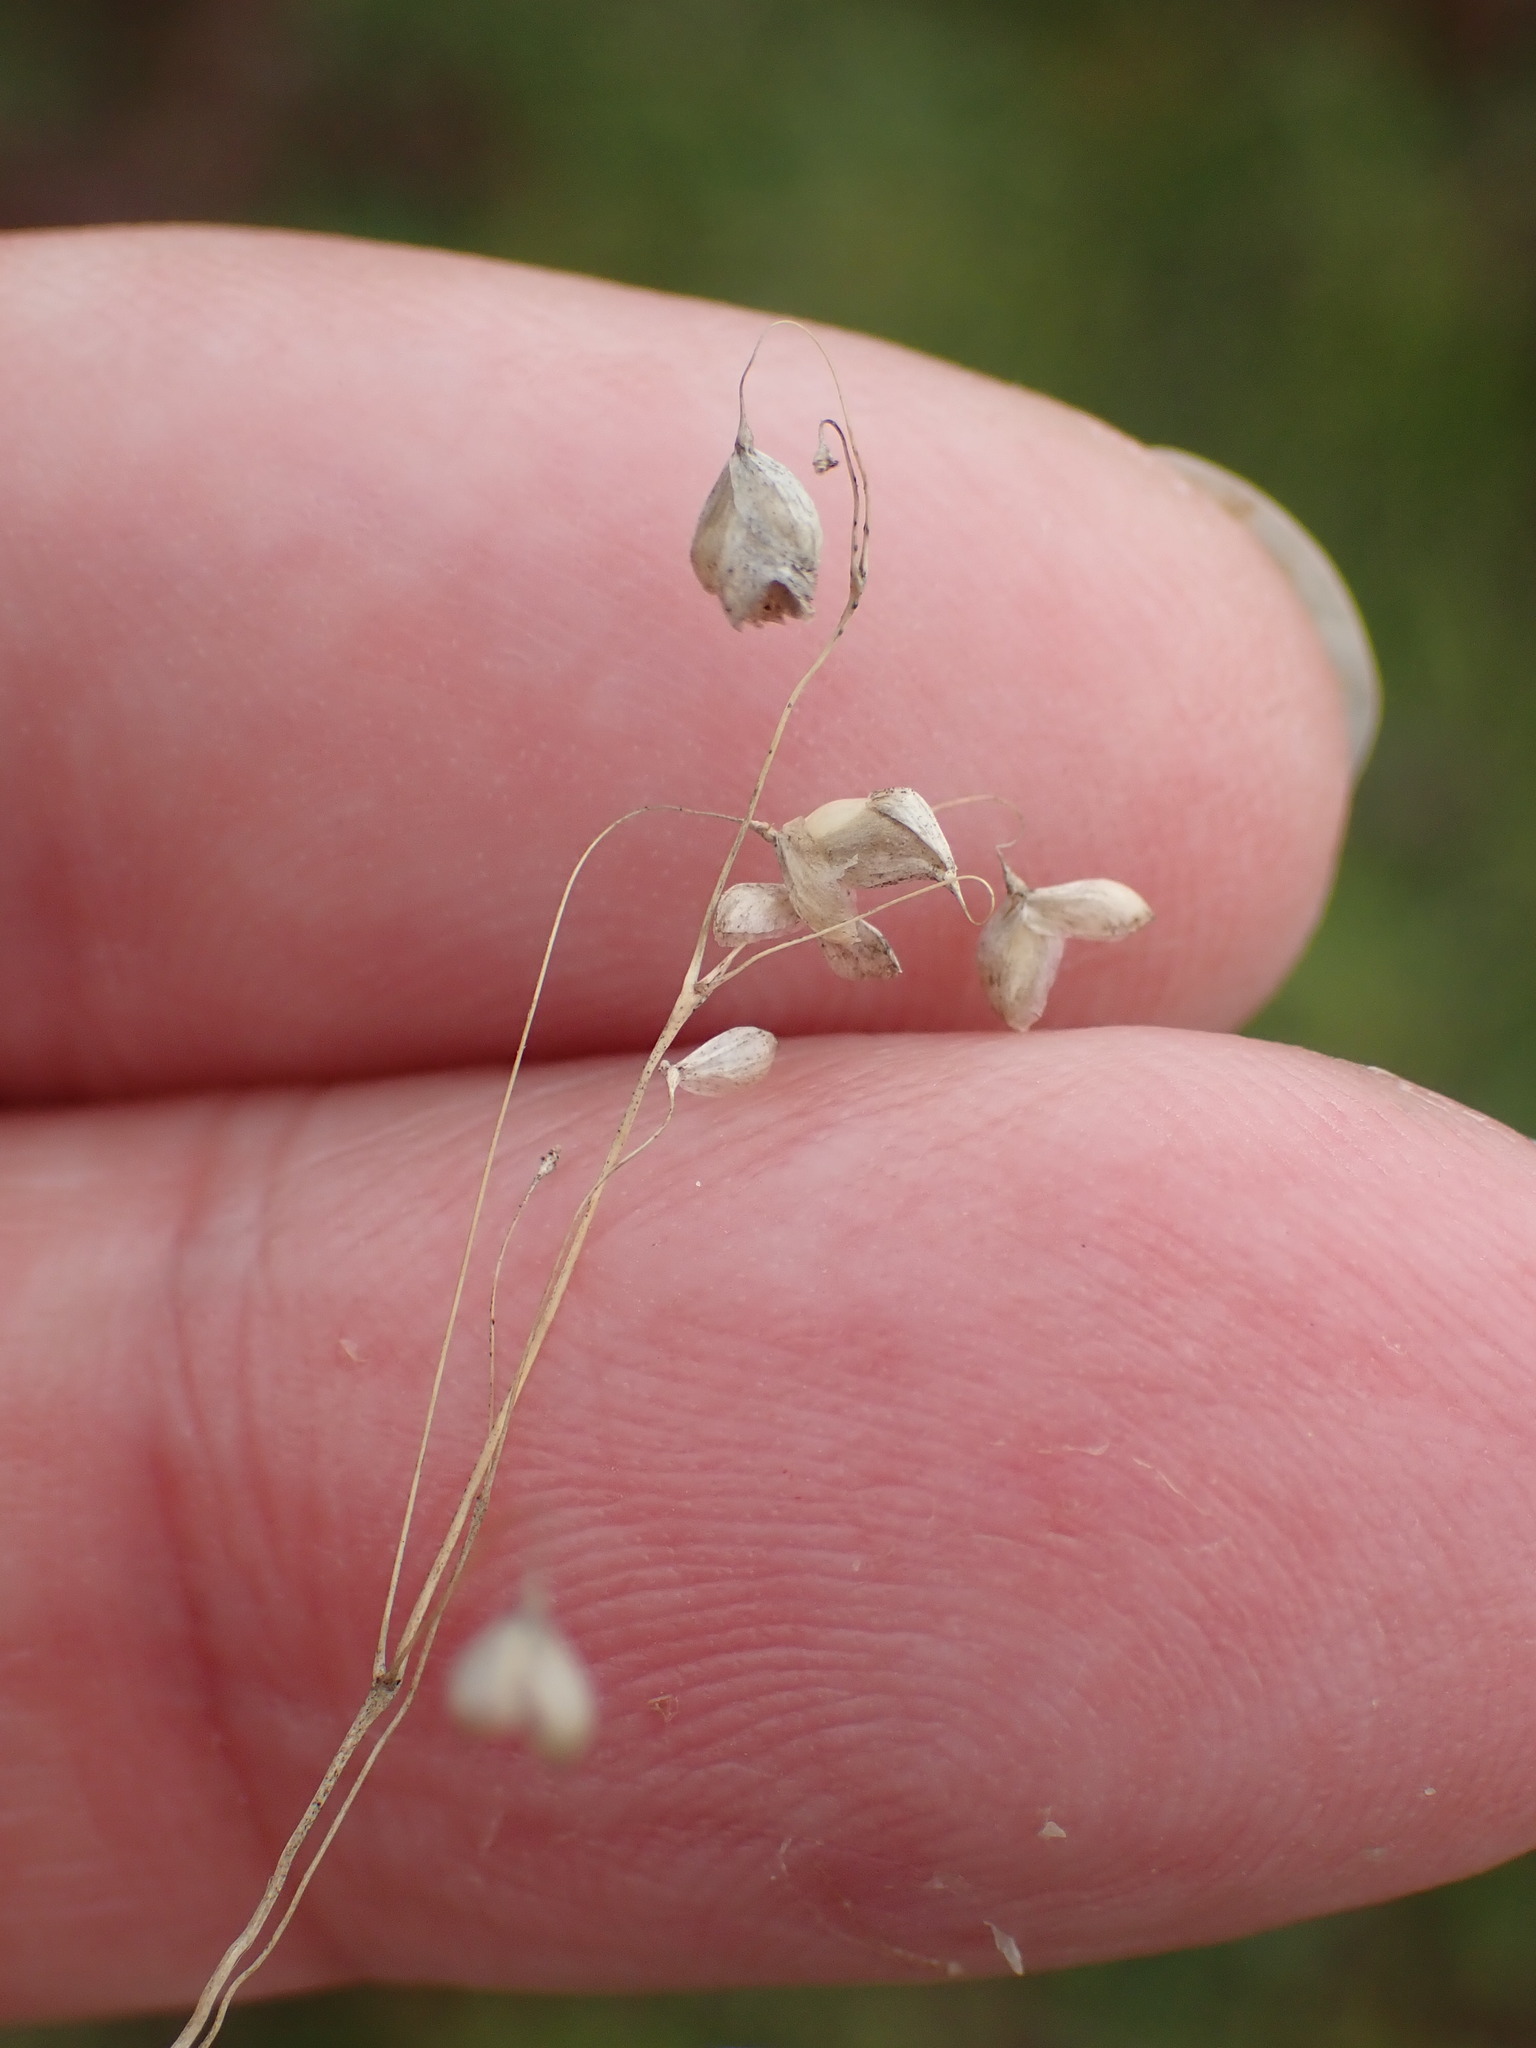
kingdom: Plantae
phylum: Tracheophyta
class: Liliopsida
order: Poales
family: Poaceae
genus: Briza
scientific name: Briza media
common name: Quaking grass
